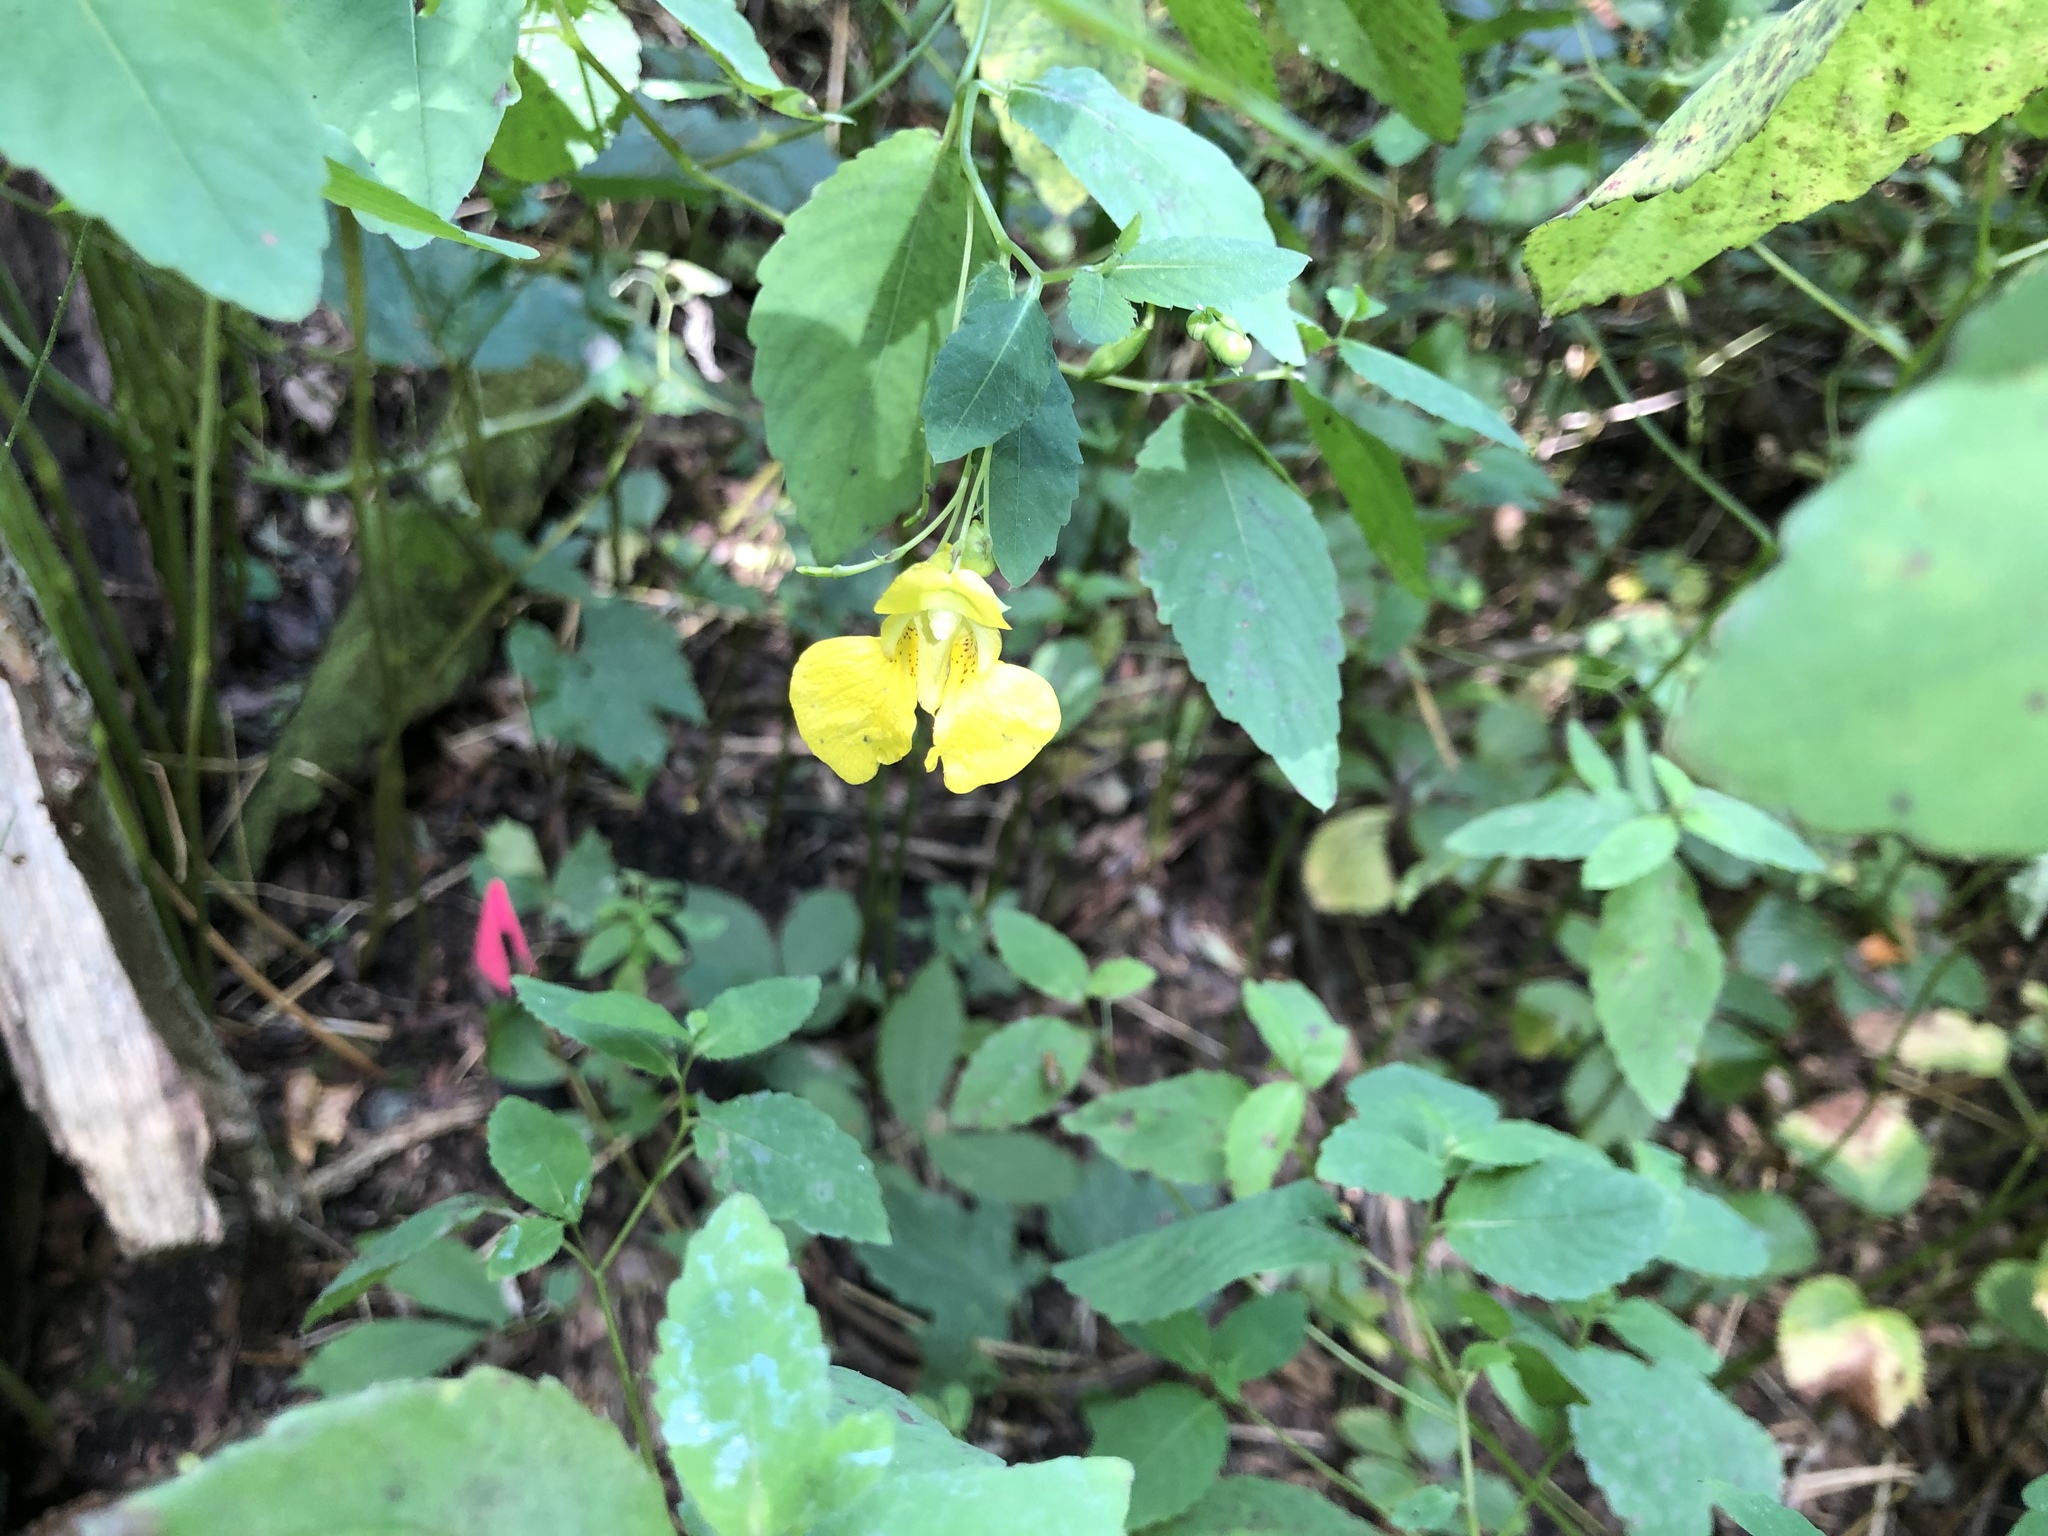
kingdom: Plantae
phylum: Tracheophyta
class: Magnoliopsida
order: Ericales
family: Balsaminaceae
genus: Impatiens
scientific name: Impatiens pallida
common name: Pale snapweed
